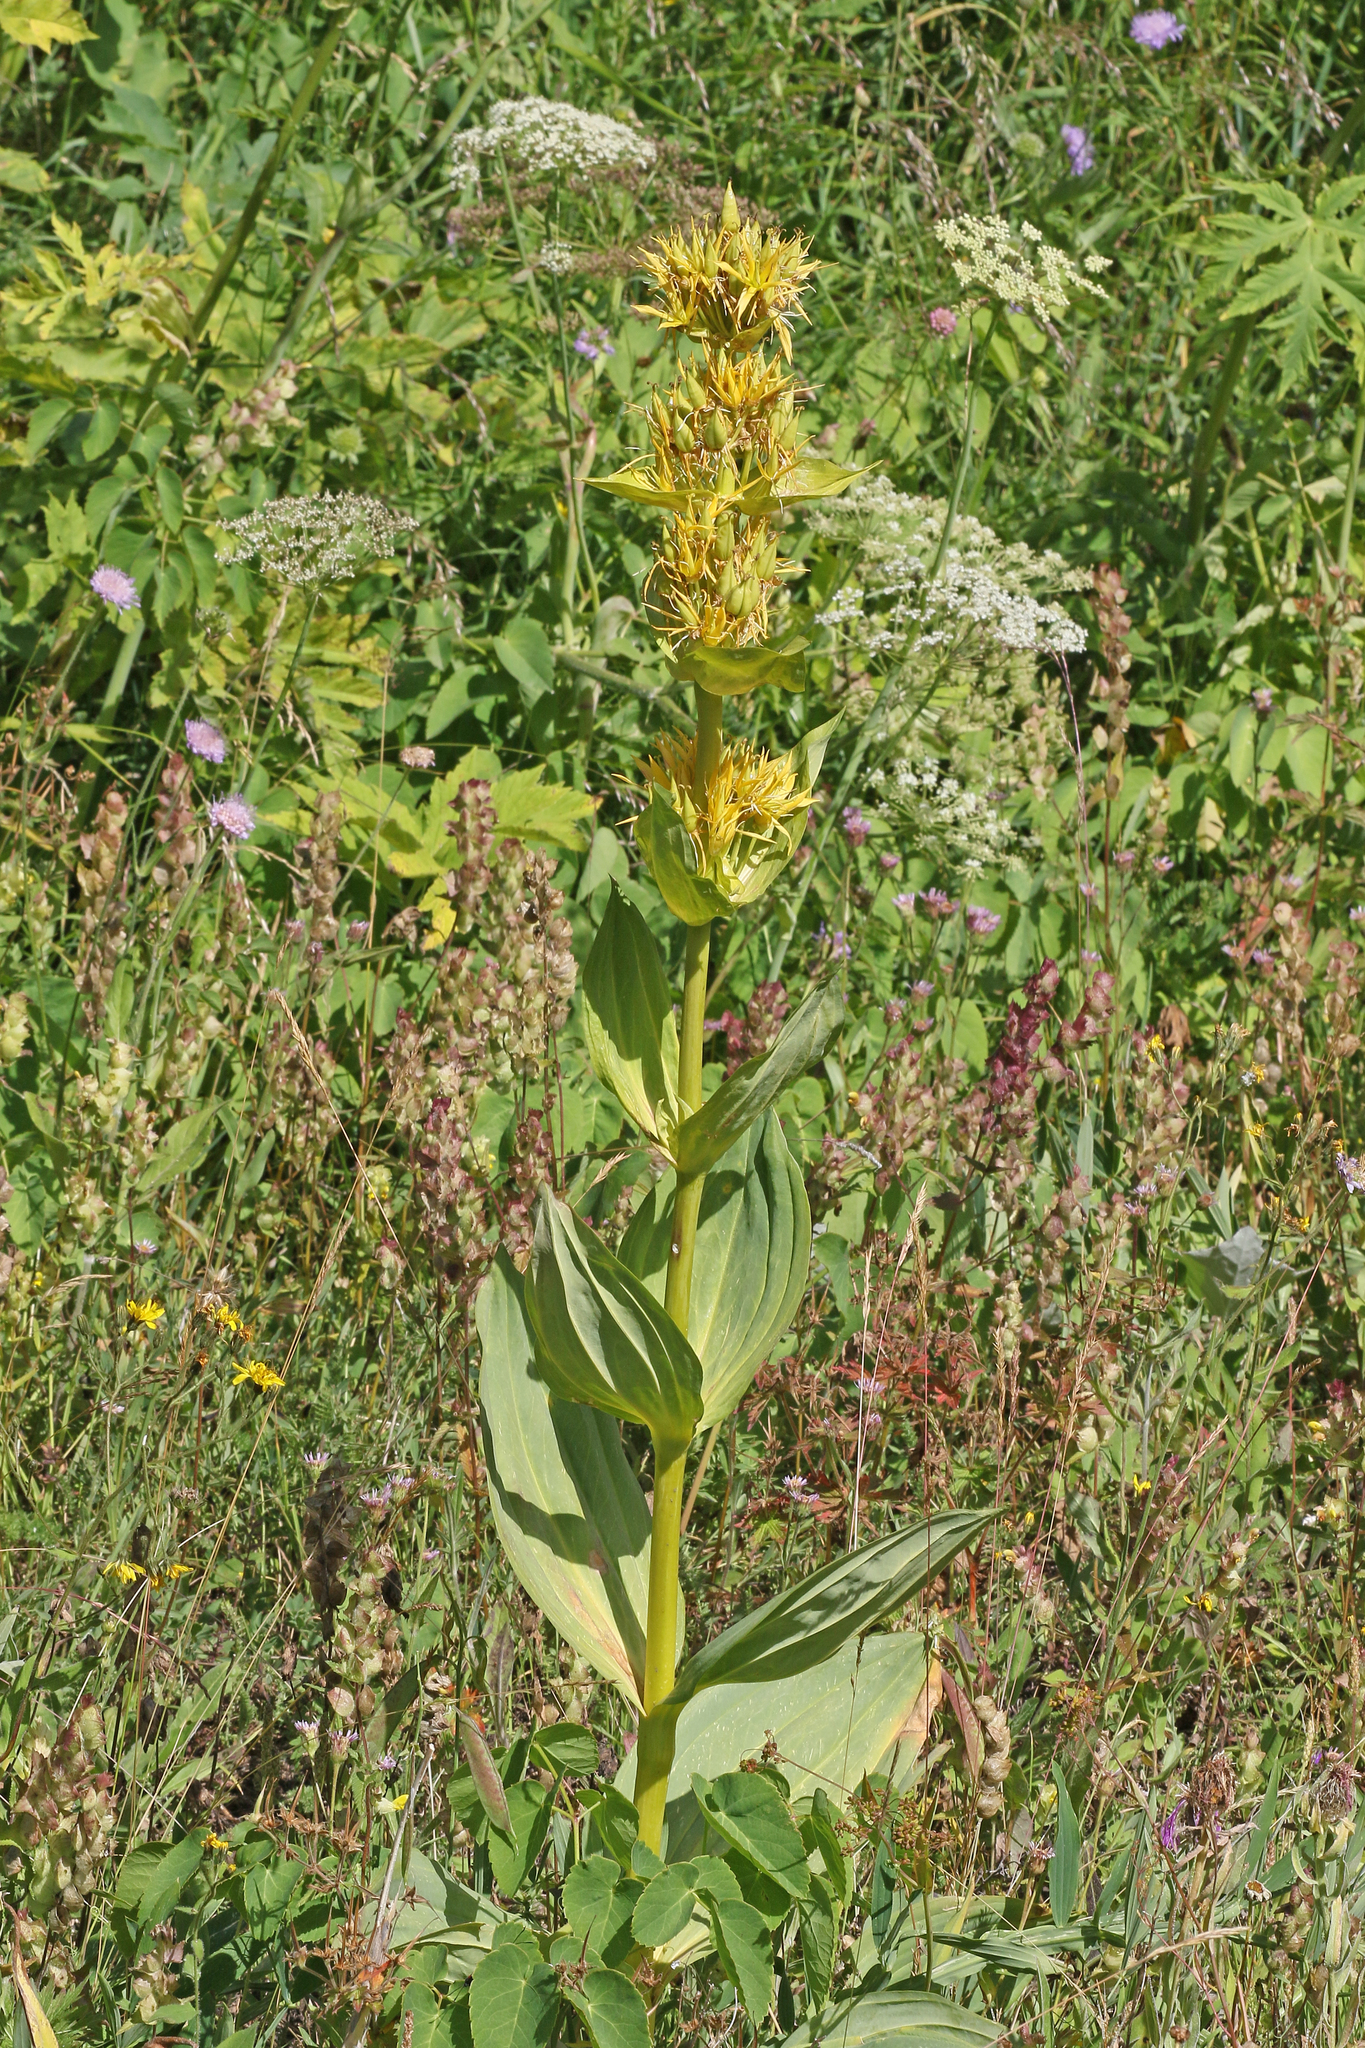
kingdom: Plantae
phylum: Tracheophyta
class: Magnoliopsida
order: Gentianales
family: Gentianaceae
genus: Gentiana
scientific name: Gentiana lutea
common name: Great yellow gentian
